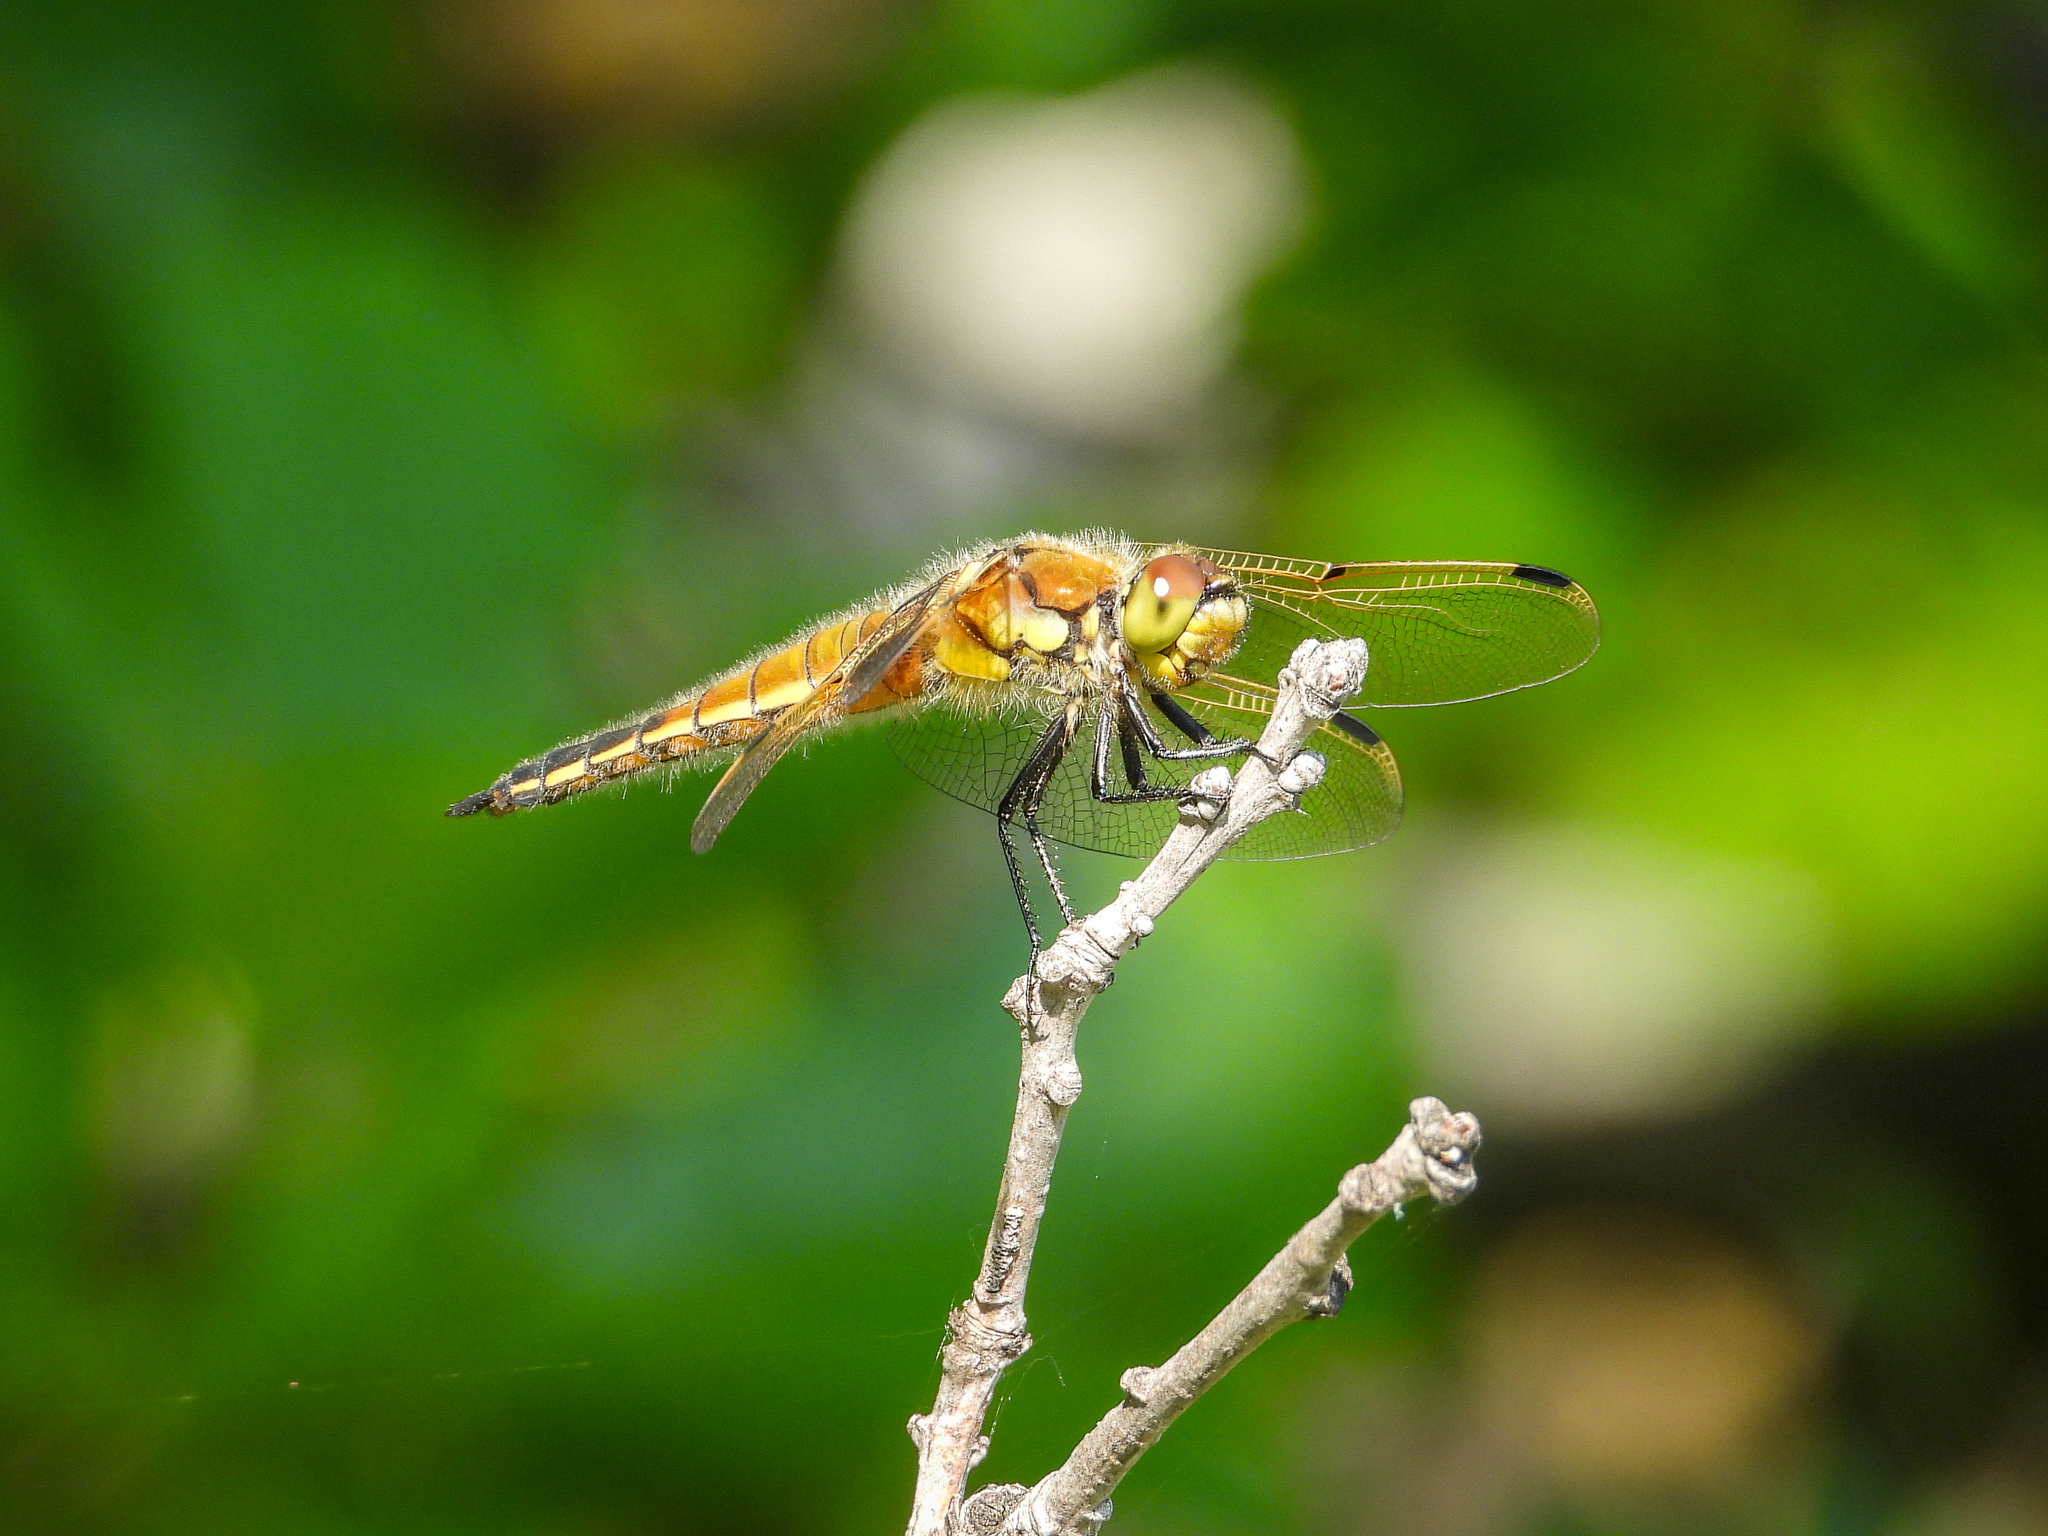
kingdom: Animalia
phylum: Arthropoda
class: Insecta
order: Odonata
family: Libellulidae
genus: Libellula
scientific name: Libellula quadrimaculata
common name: Four-spotted chaser
